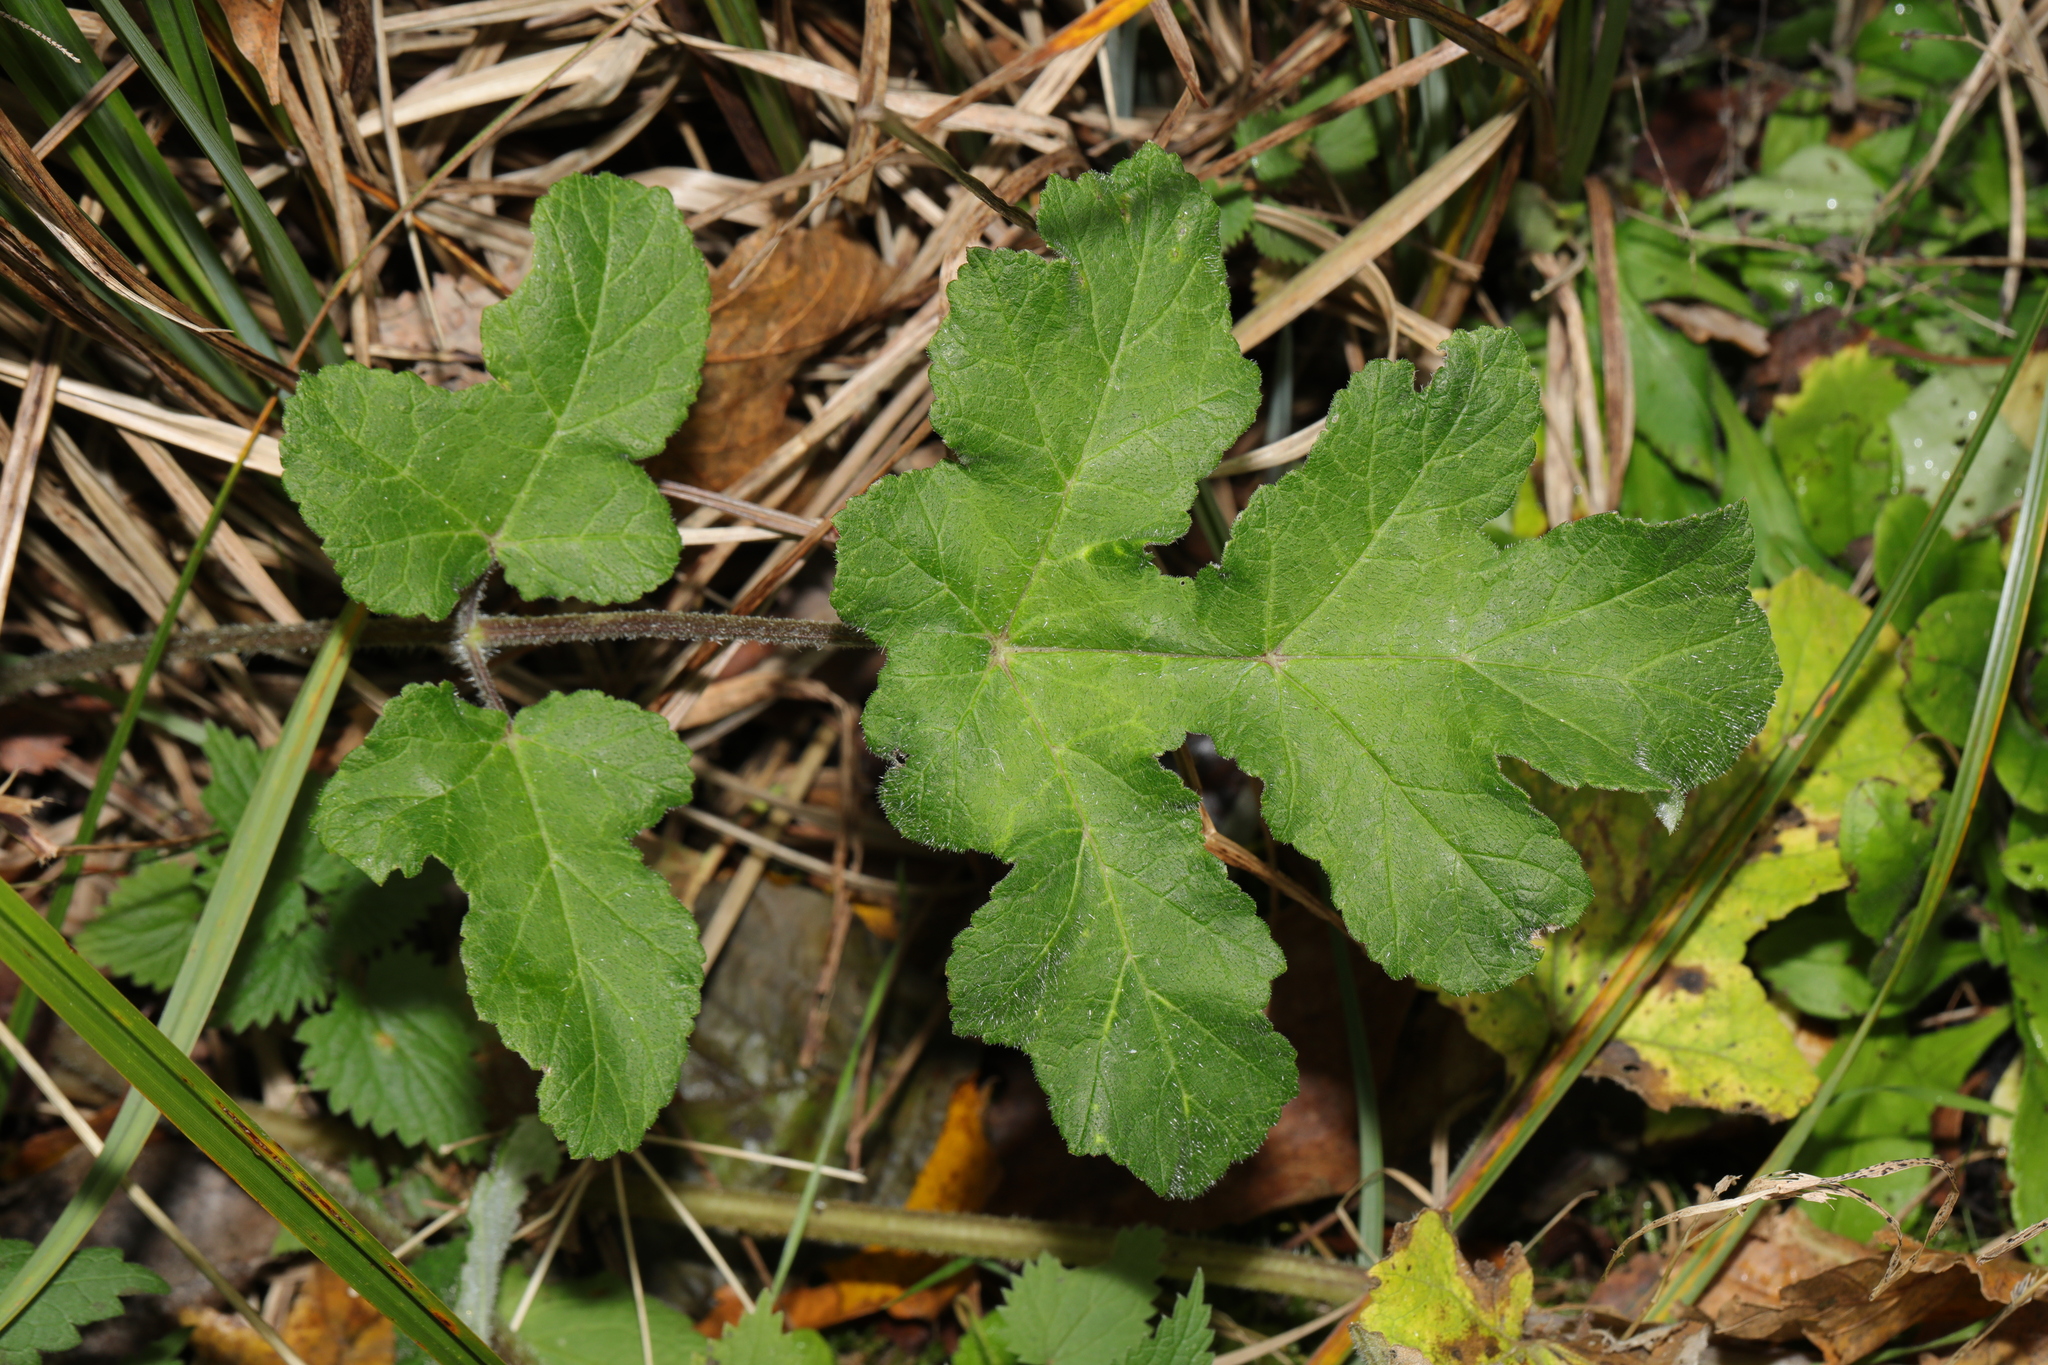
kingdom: Plantae
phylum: Tracheophyta
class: Magnoliopsida
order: Apiales
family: Apiaceae
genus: Heracleum
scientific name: Heracleum sphondylium
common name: Hogweed
